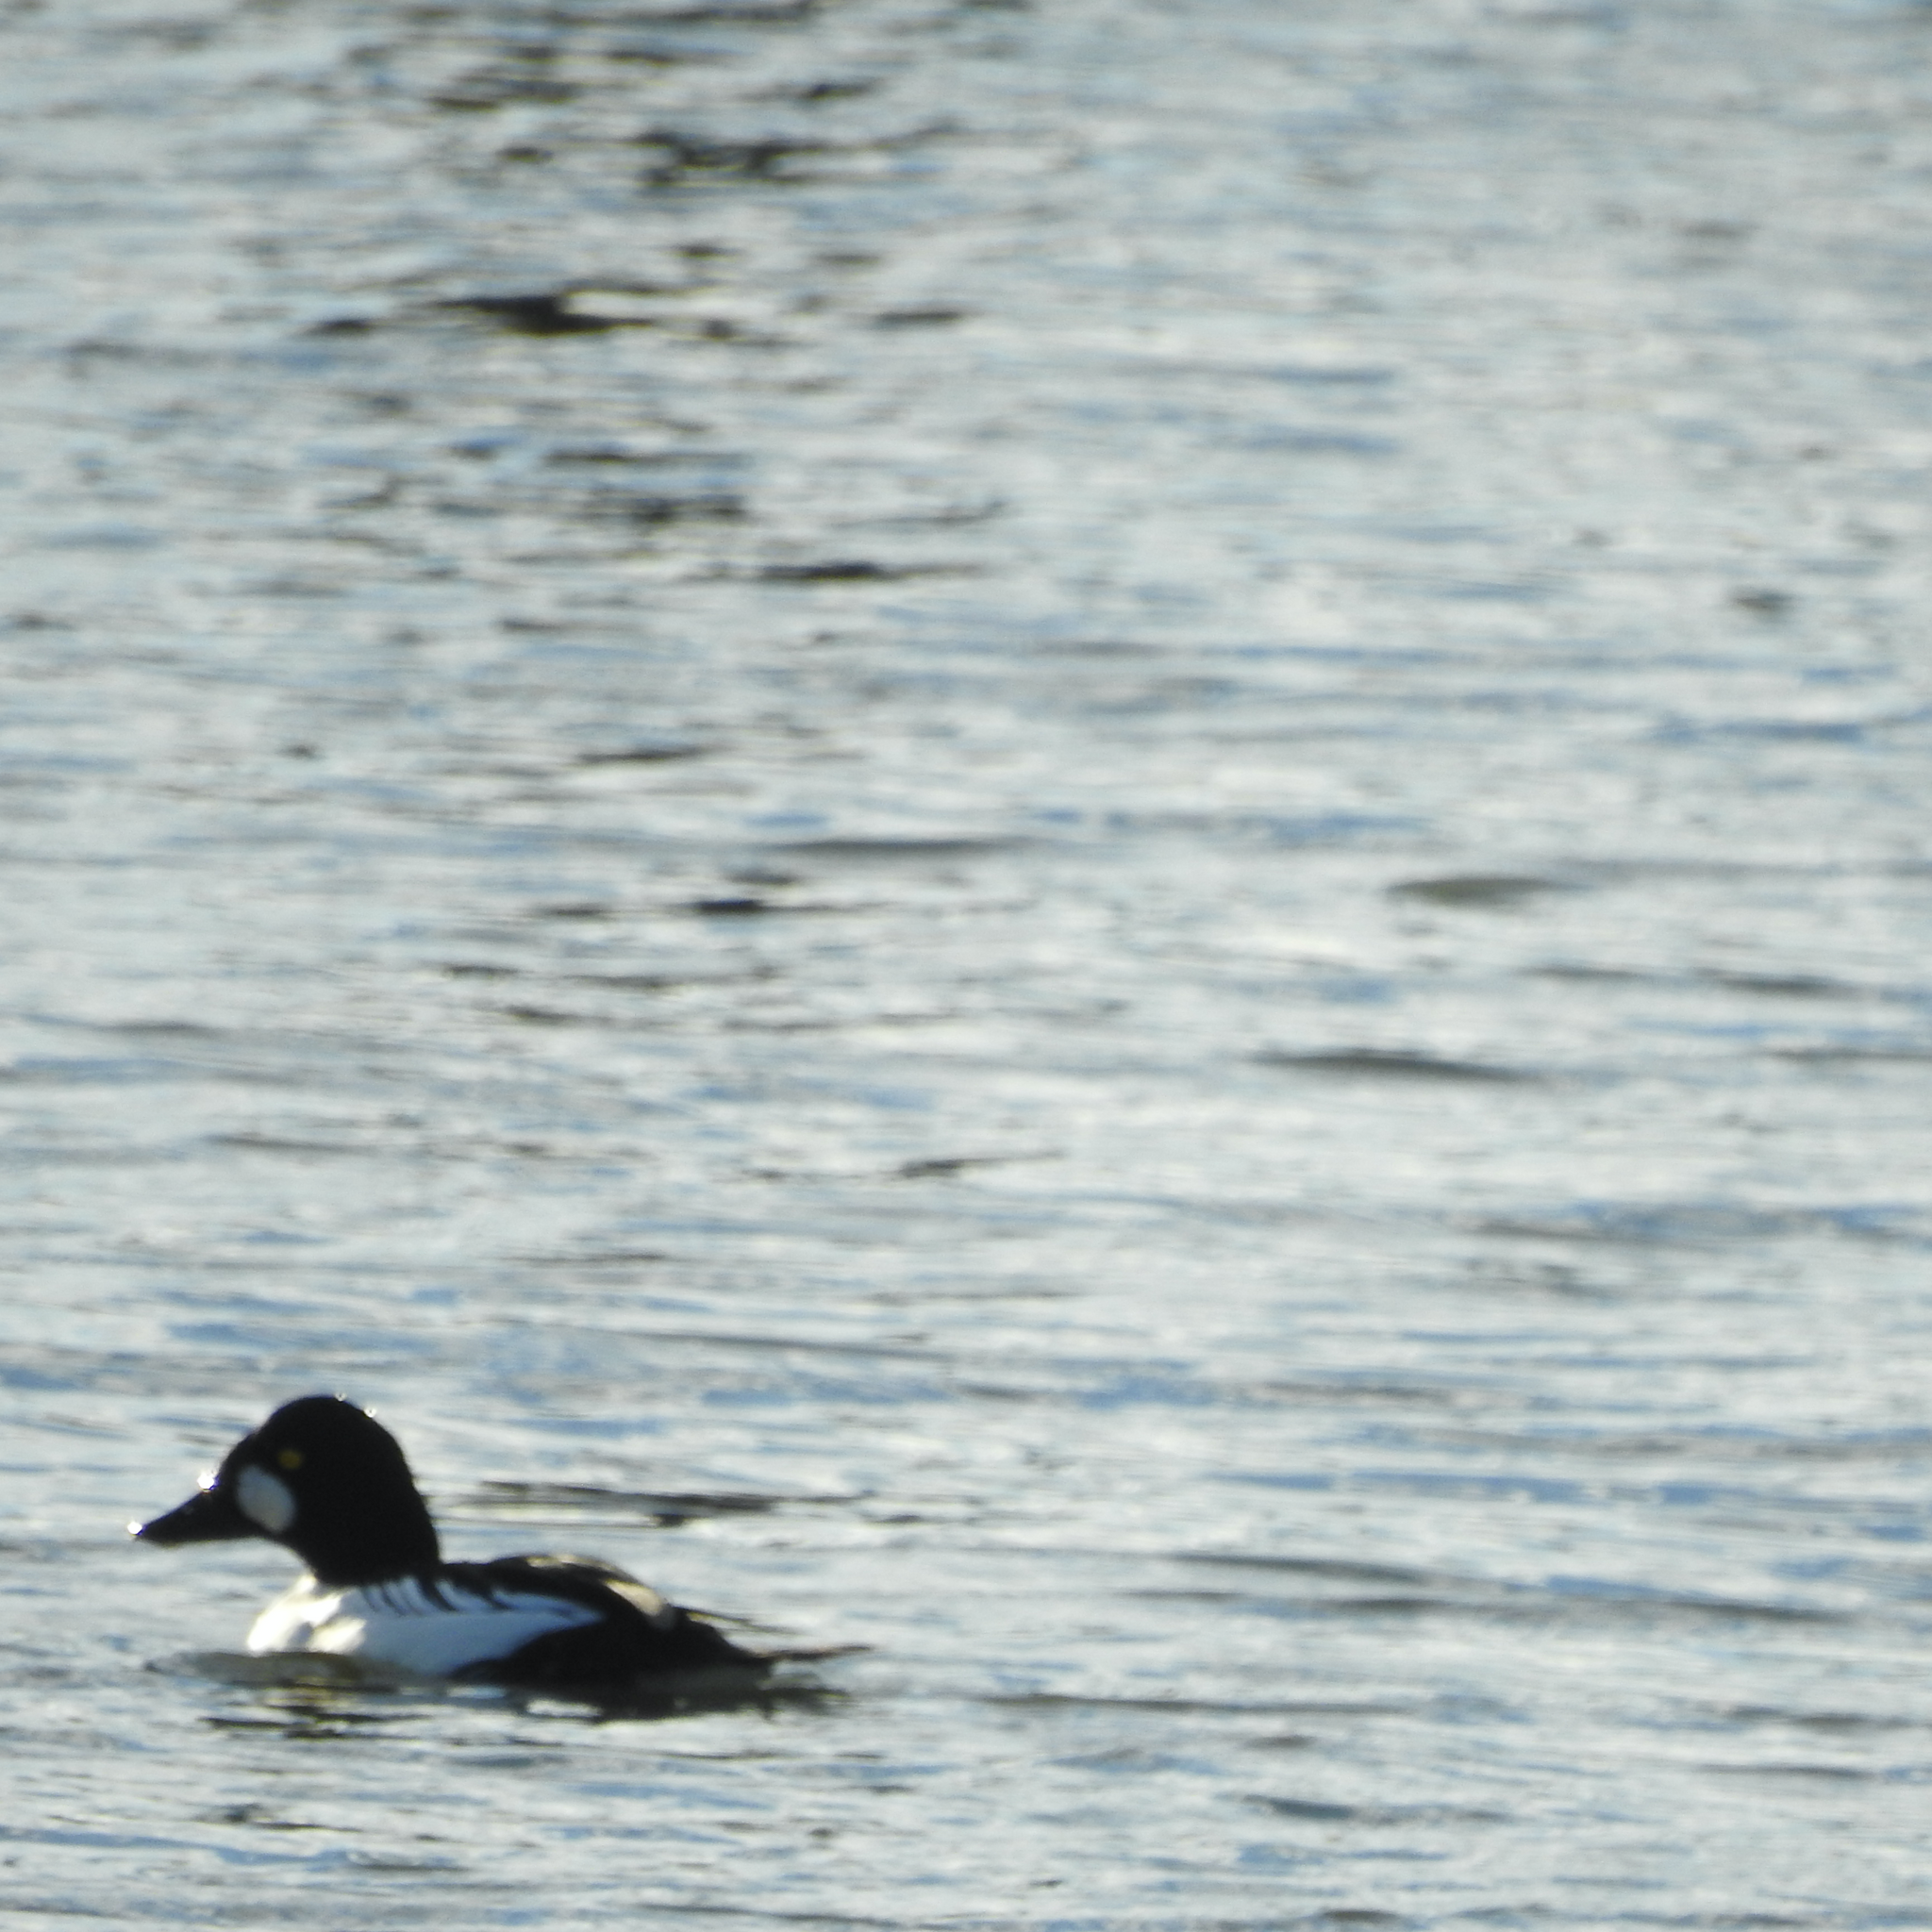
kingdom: Animalia
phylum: Chordata
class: Aves
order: Anseriformes
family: Anatidae
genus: Bucephala
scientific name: Bucephala clangula
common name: Common goldeneye
